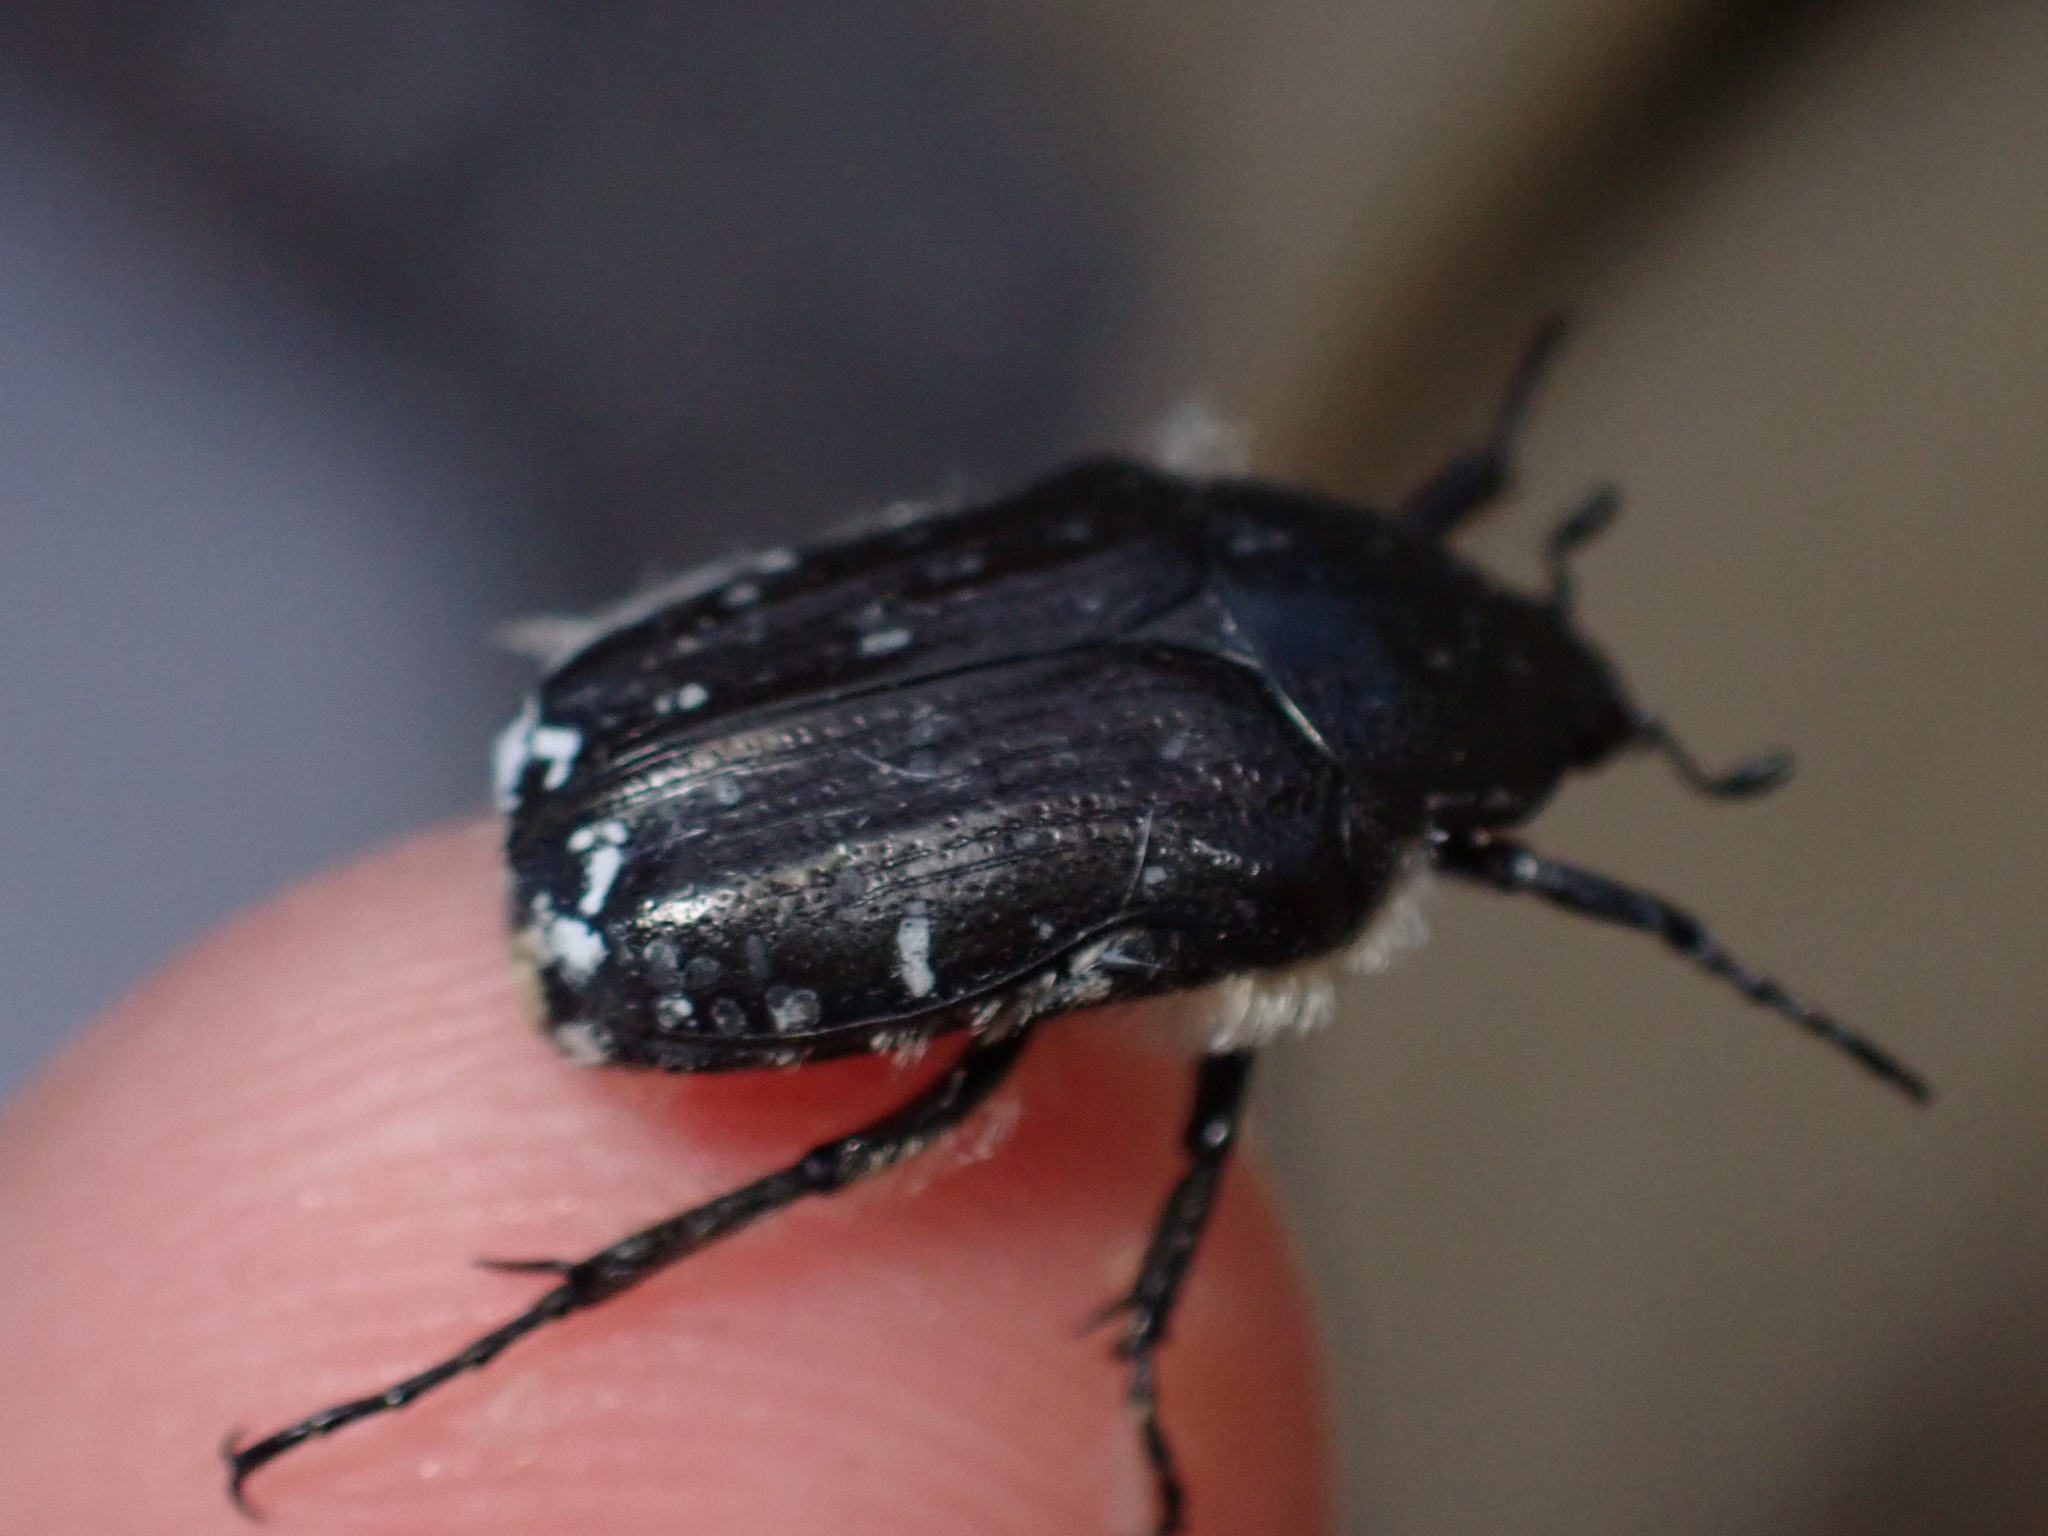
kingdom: Animalia
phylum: Arthropoda
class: Insecta
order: Coleoptera
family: Scarabaeidae
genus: Oxythyrea
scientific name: Oxythyrea funesta
